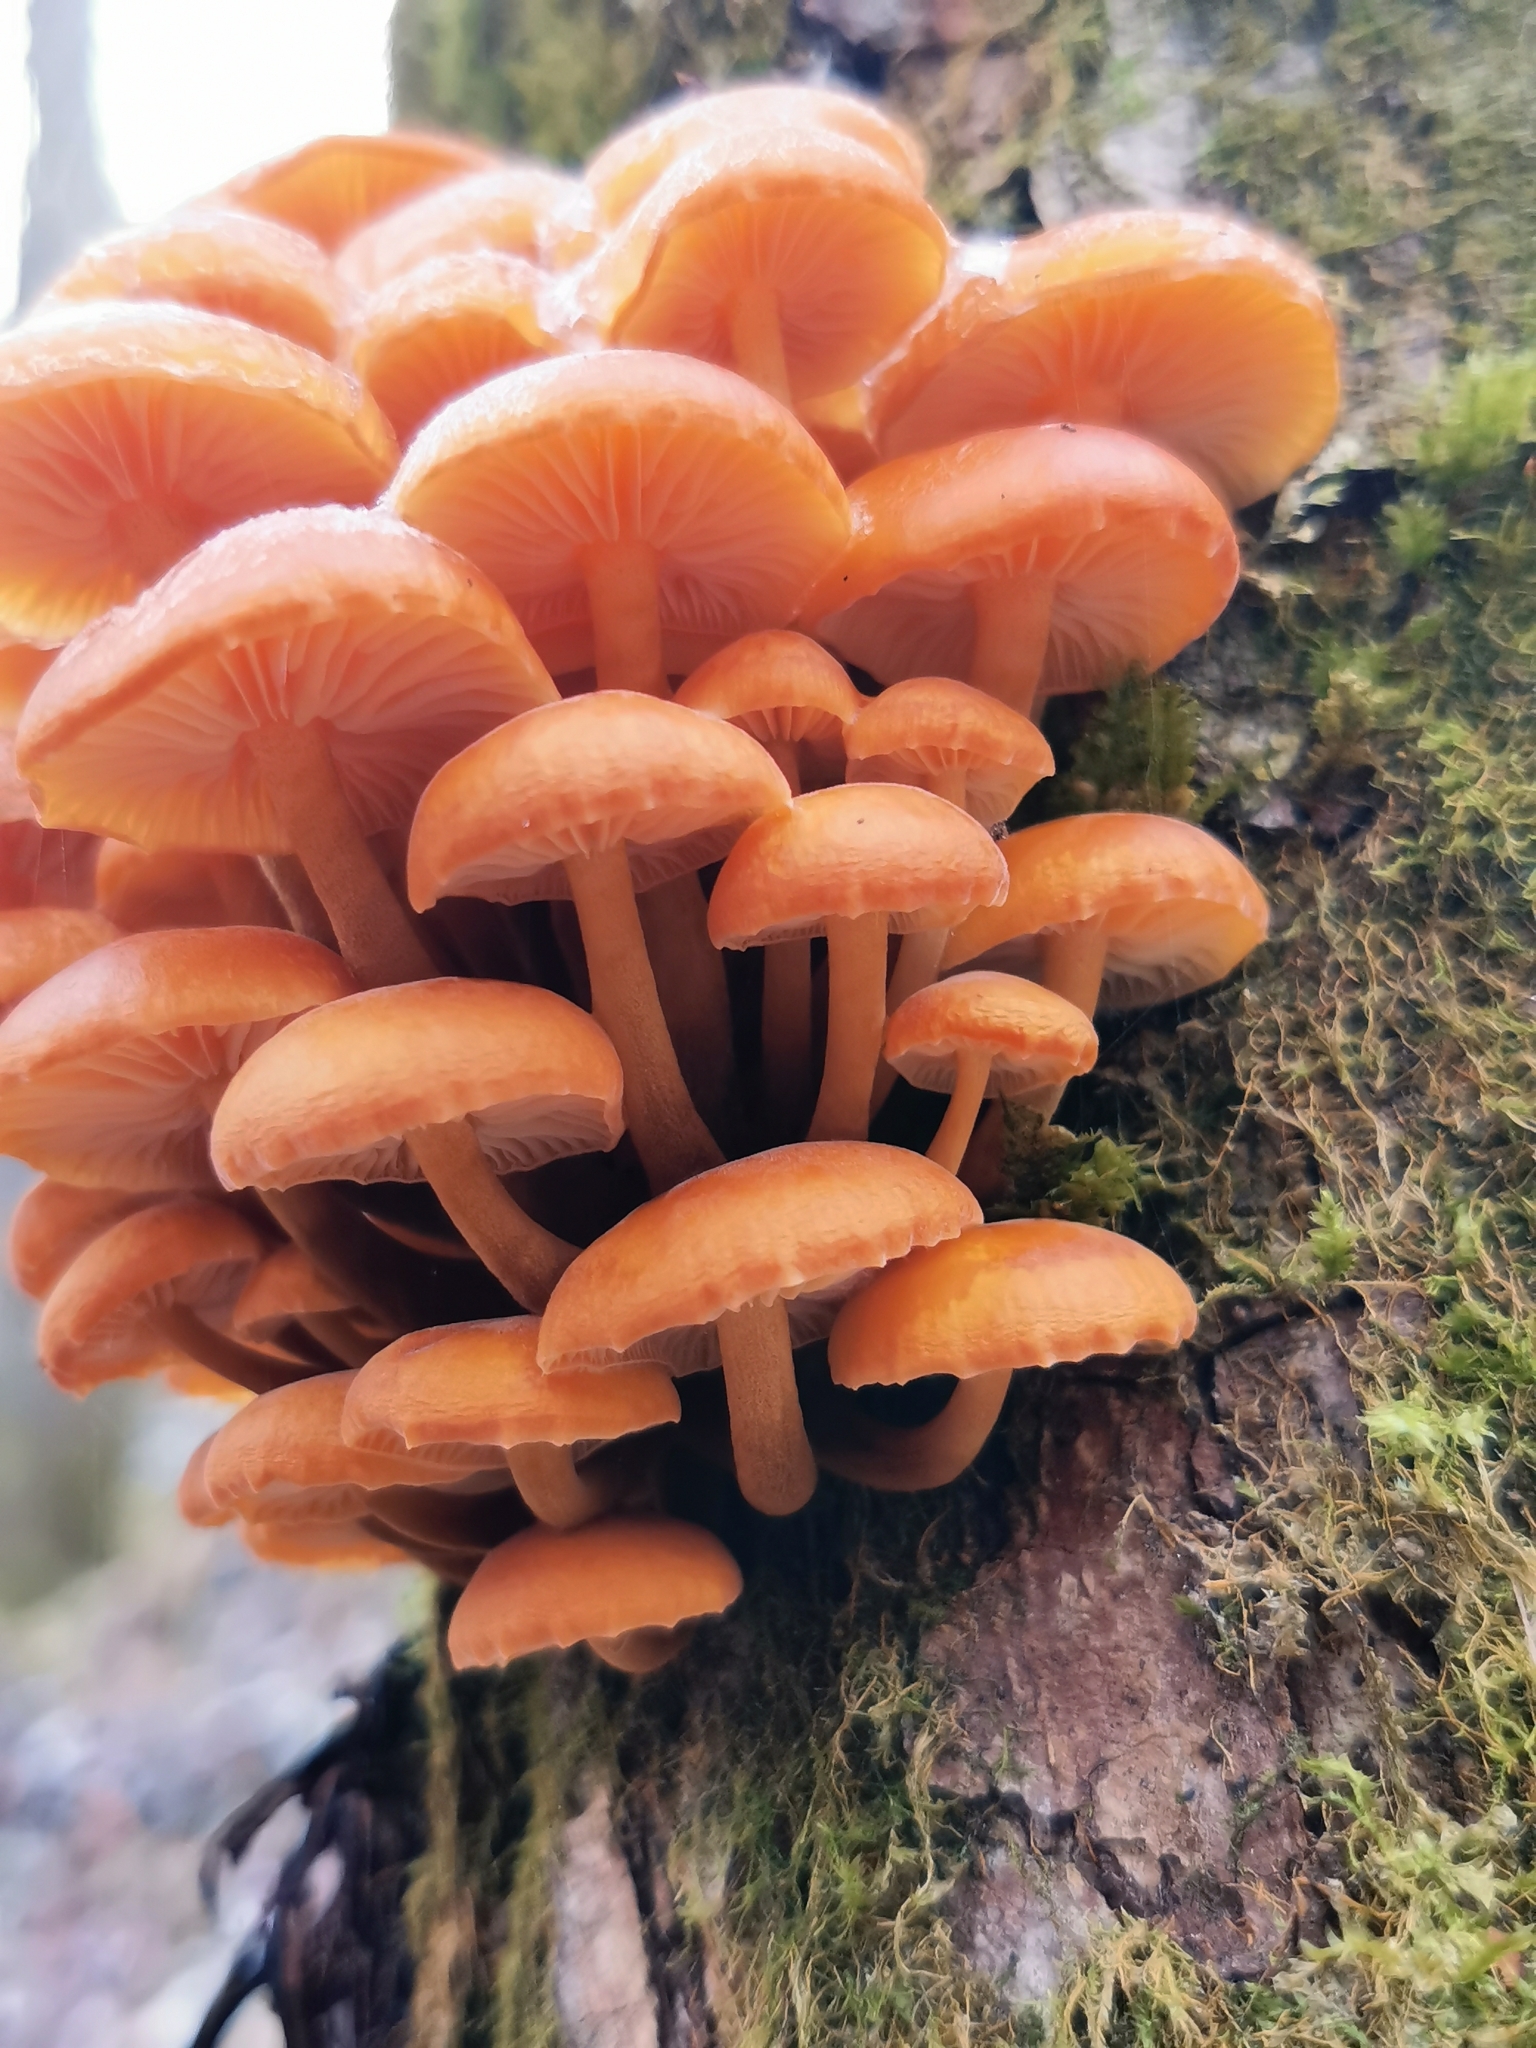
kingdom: Fungi
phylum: Basidiomycota
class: Agaricomycetes
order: Agaricales
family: Physalacriaceae
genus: Flammulina
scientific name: Flammulina
